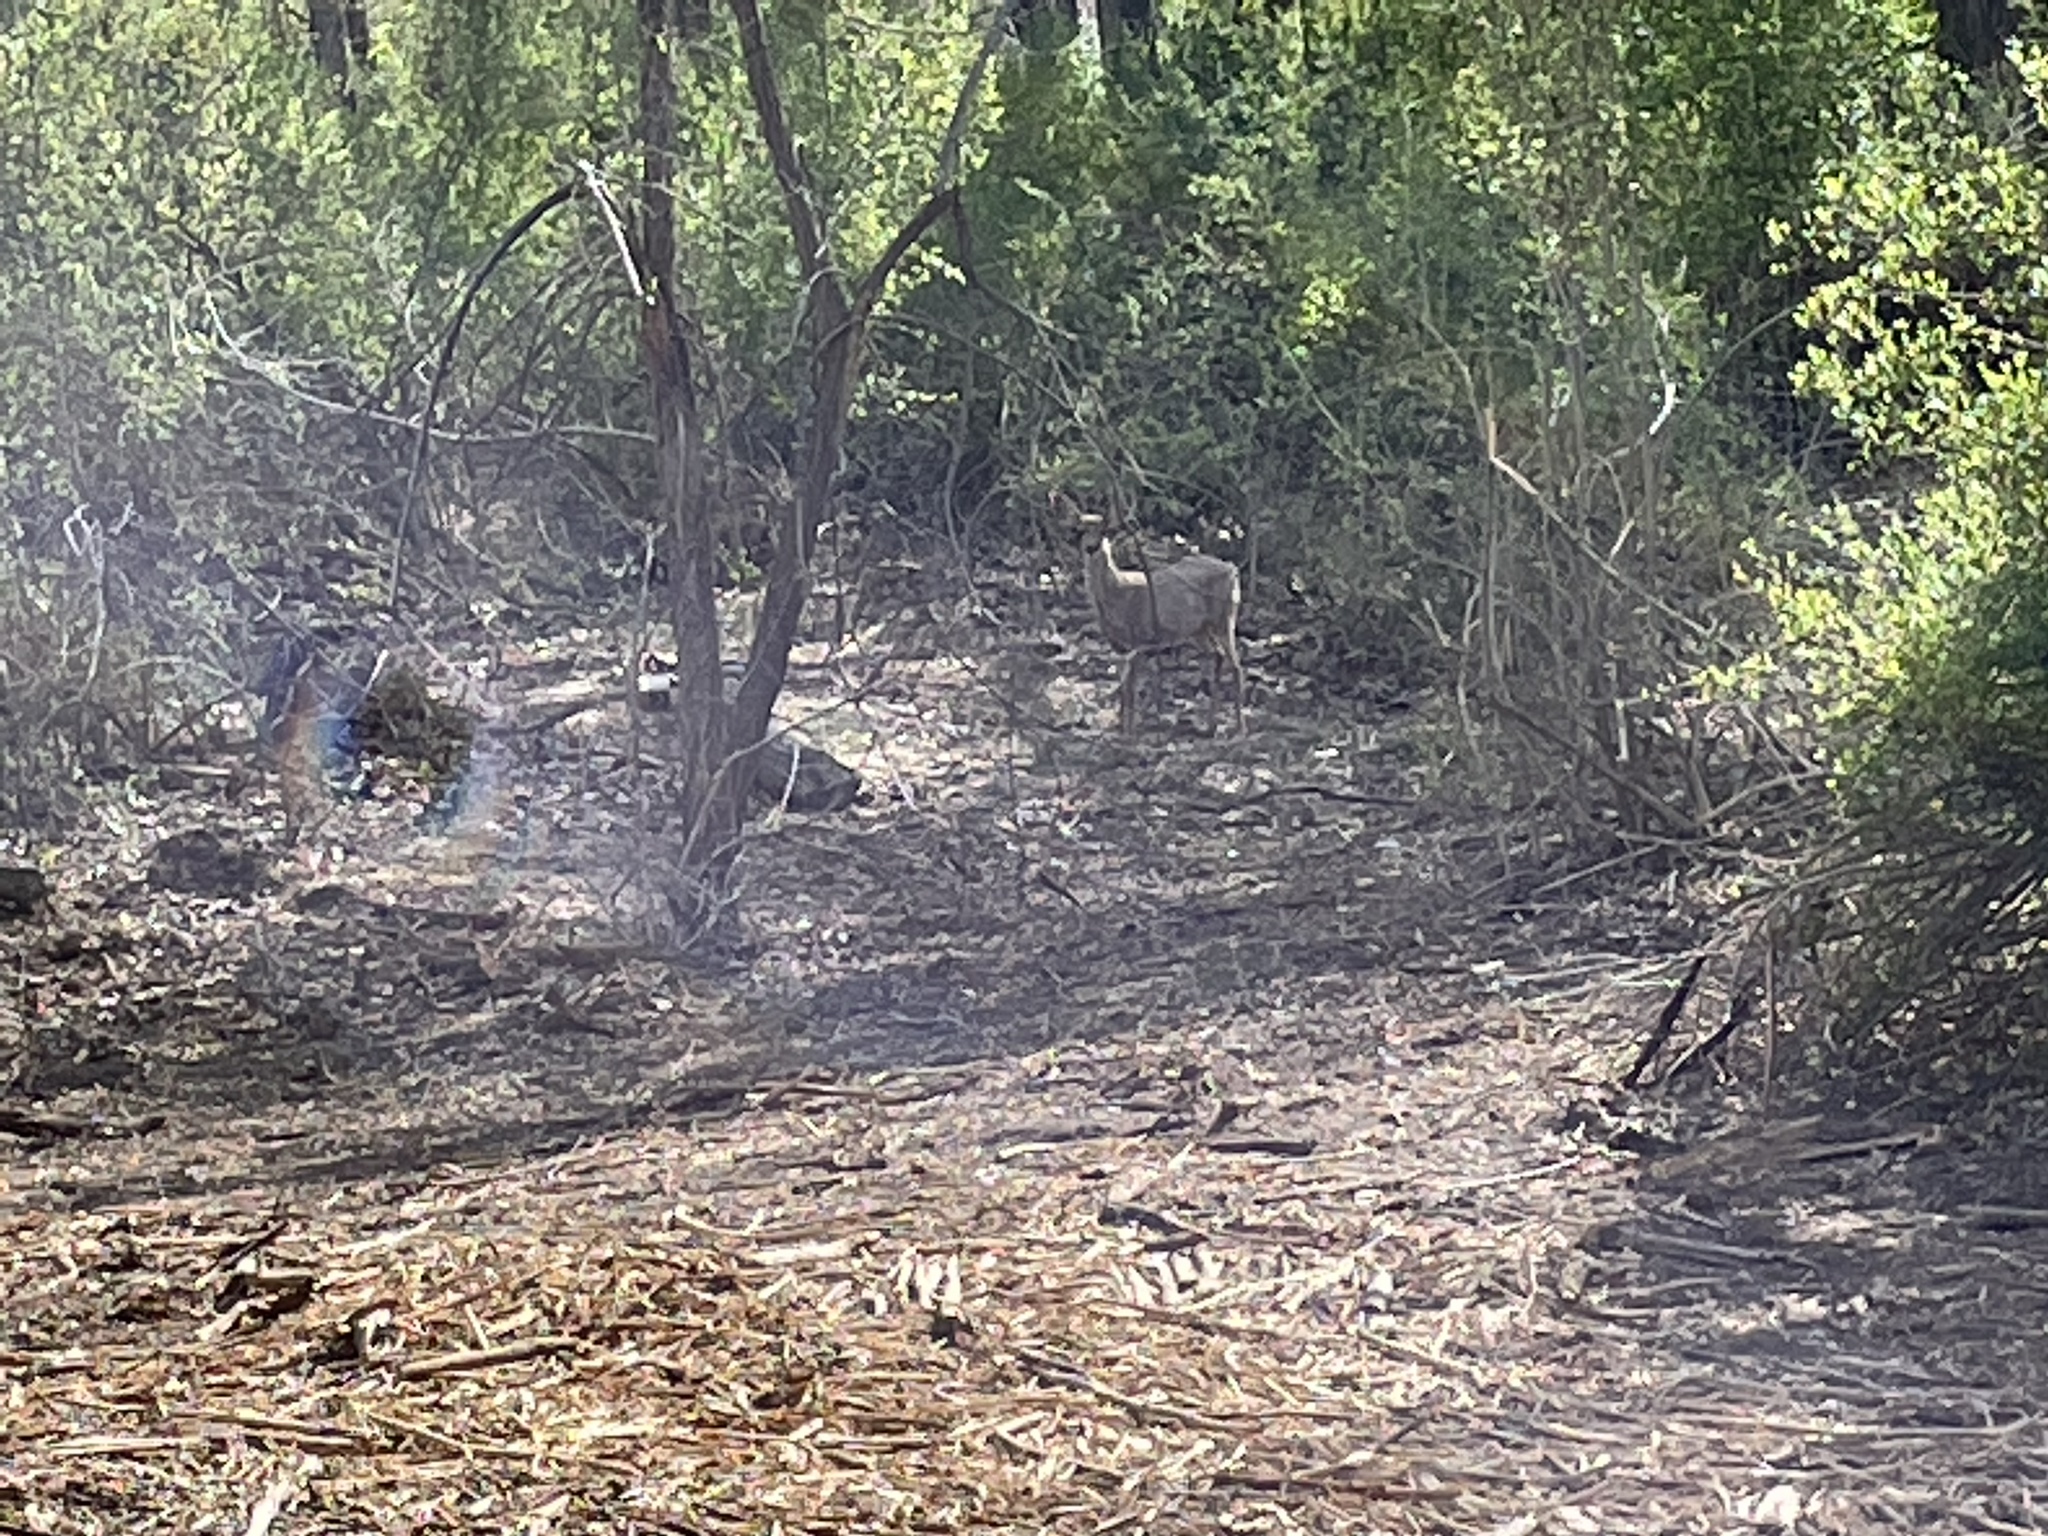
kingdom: Animalia
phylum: Chordata
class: Mammalia
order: Artiodactyla
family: Cervidae
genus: Odocoileus
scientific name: Odocoileus hemionus
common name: Mule deer
